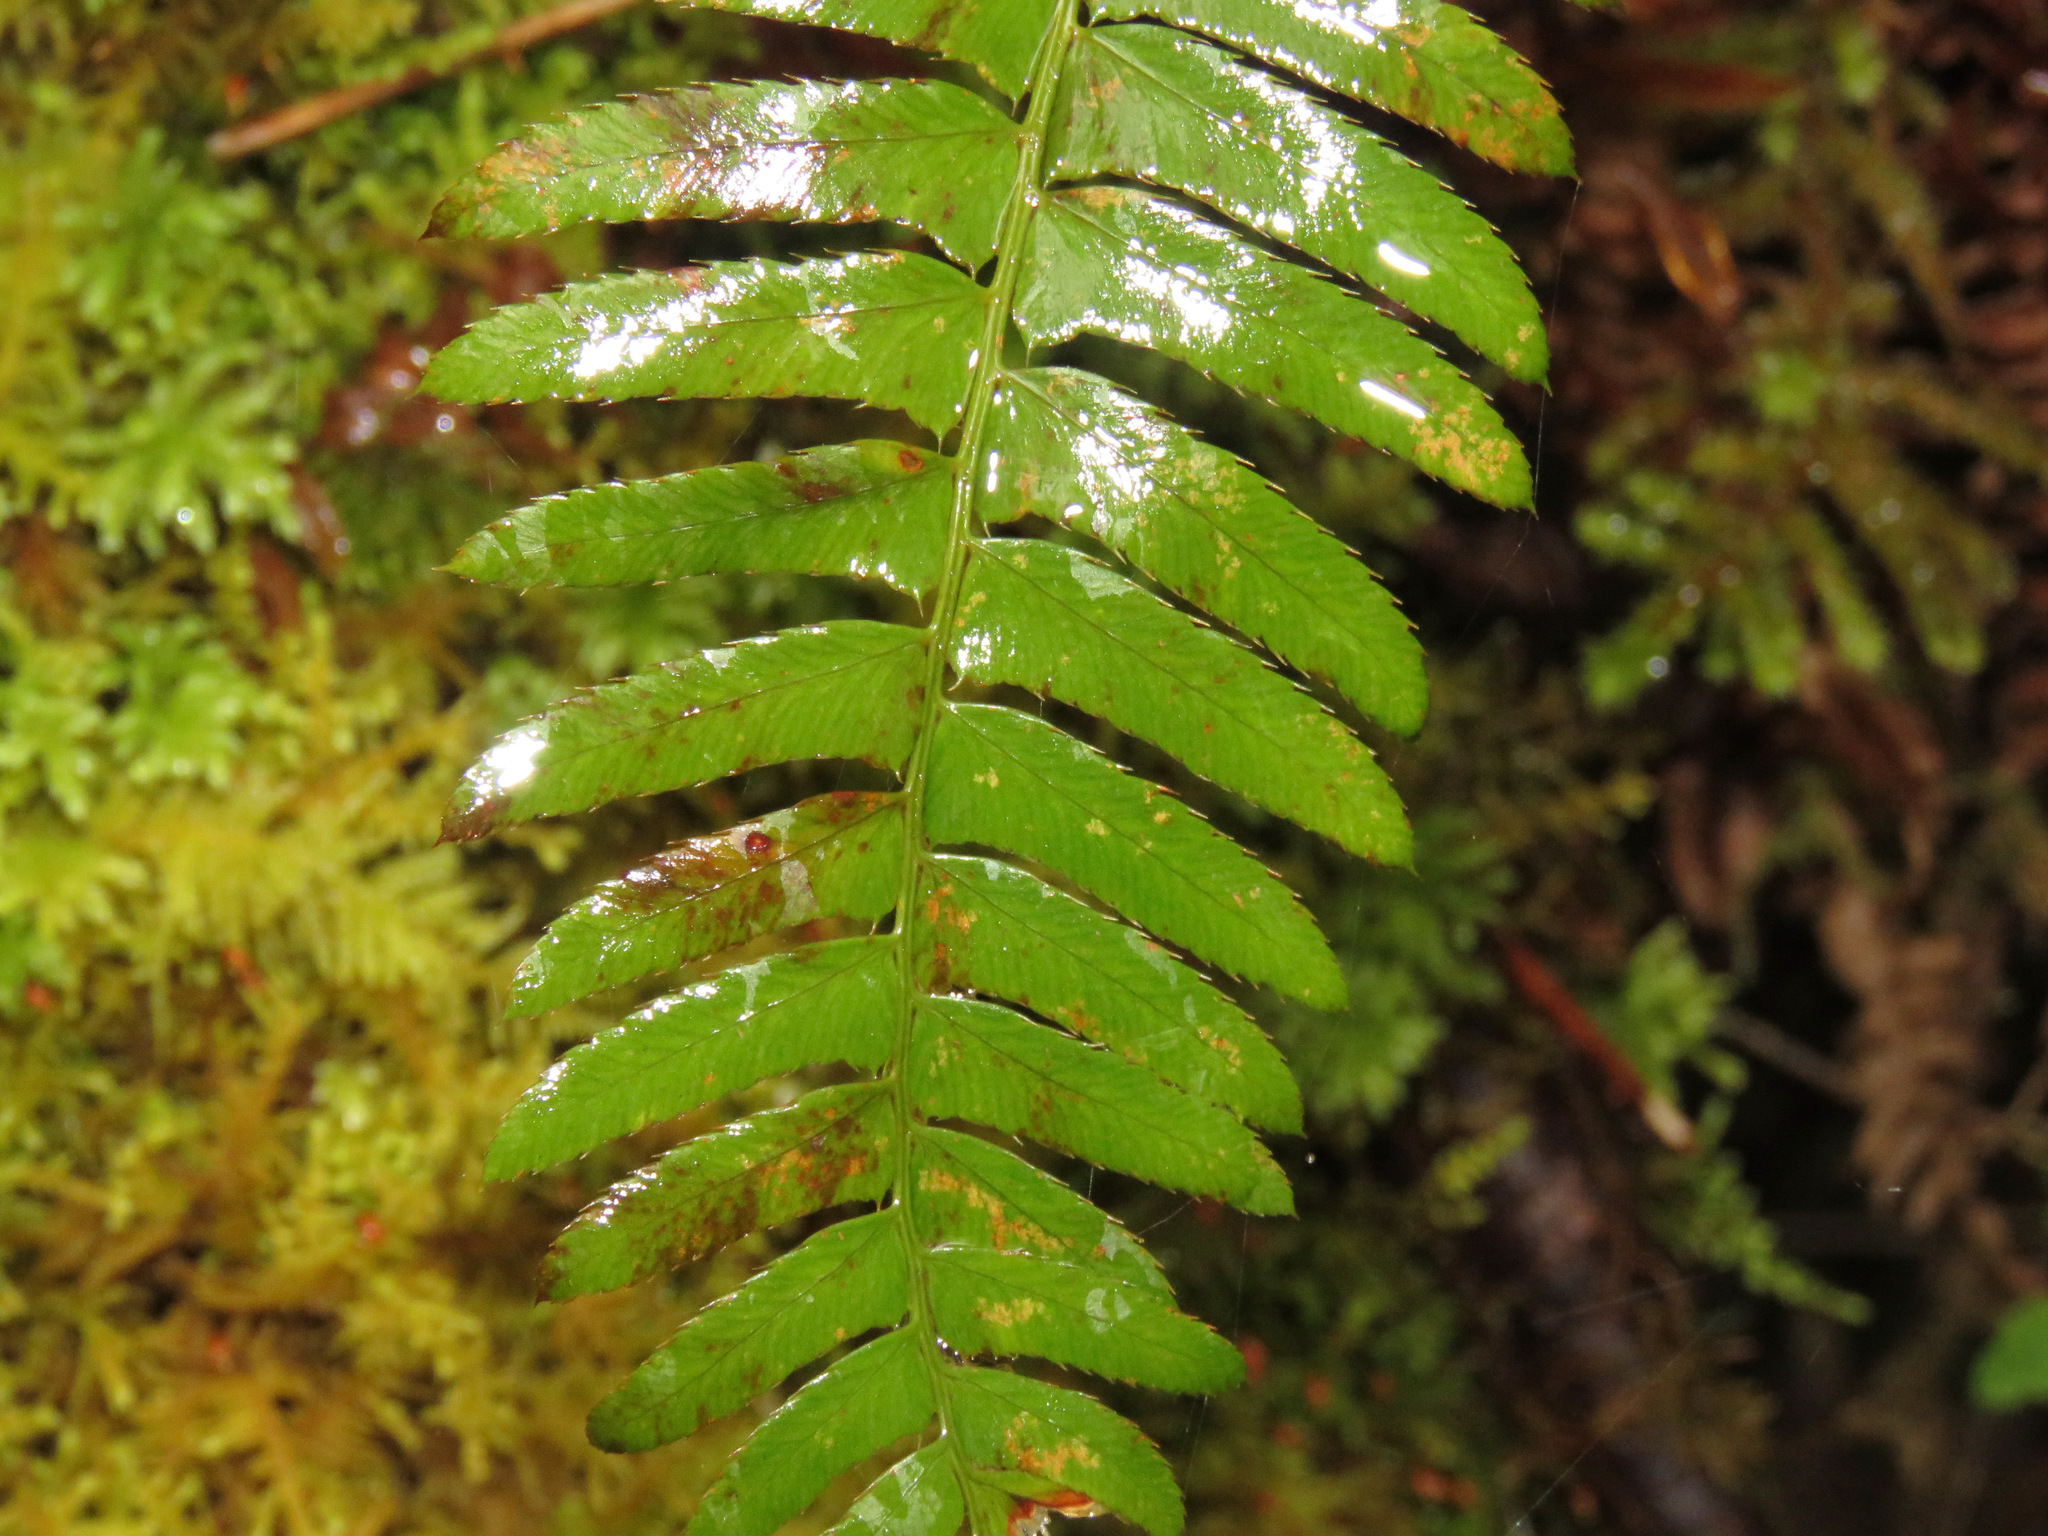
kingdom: Plantae
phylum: Tracheophyta
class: Polypodiopsida
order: Polypodiales
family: Dryopteridaceae
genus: Polystichum
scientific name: Polystichum munitum
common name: Western sword-fern
